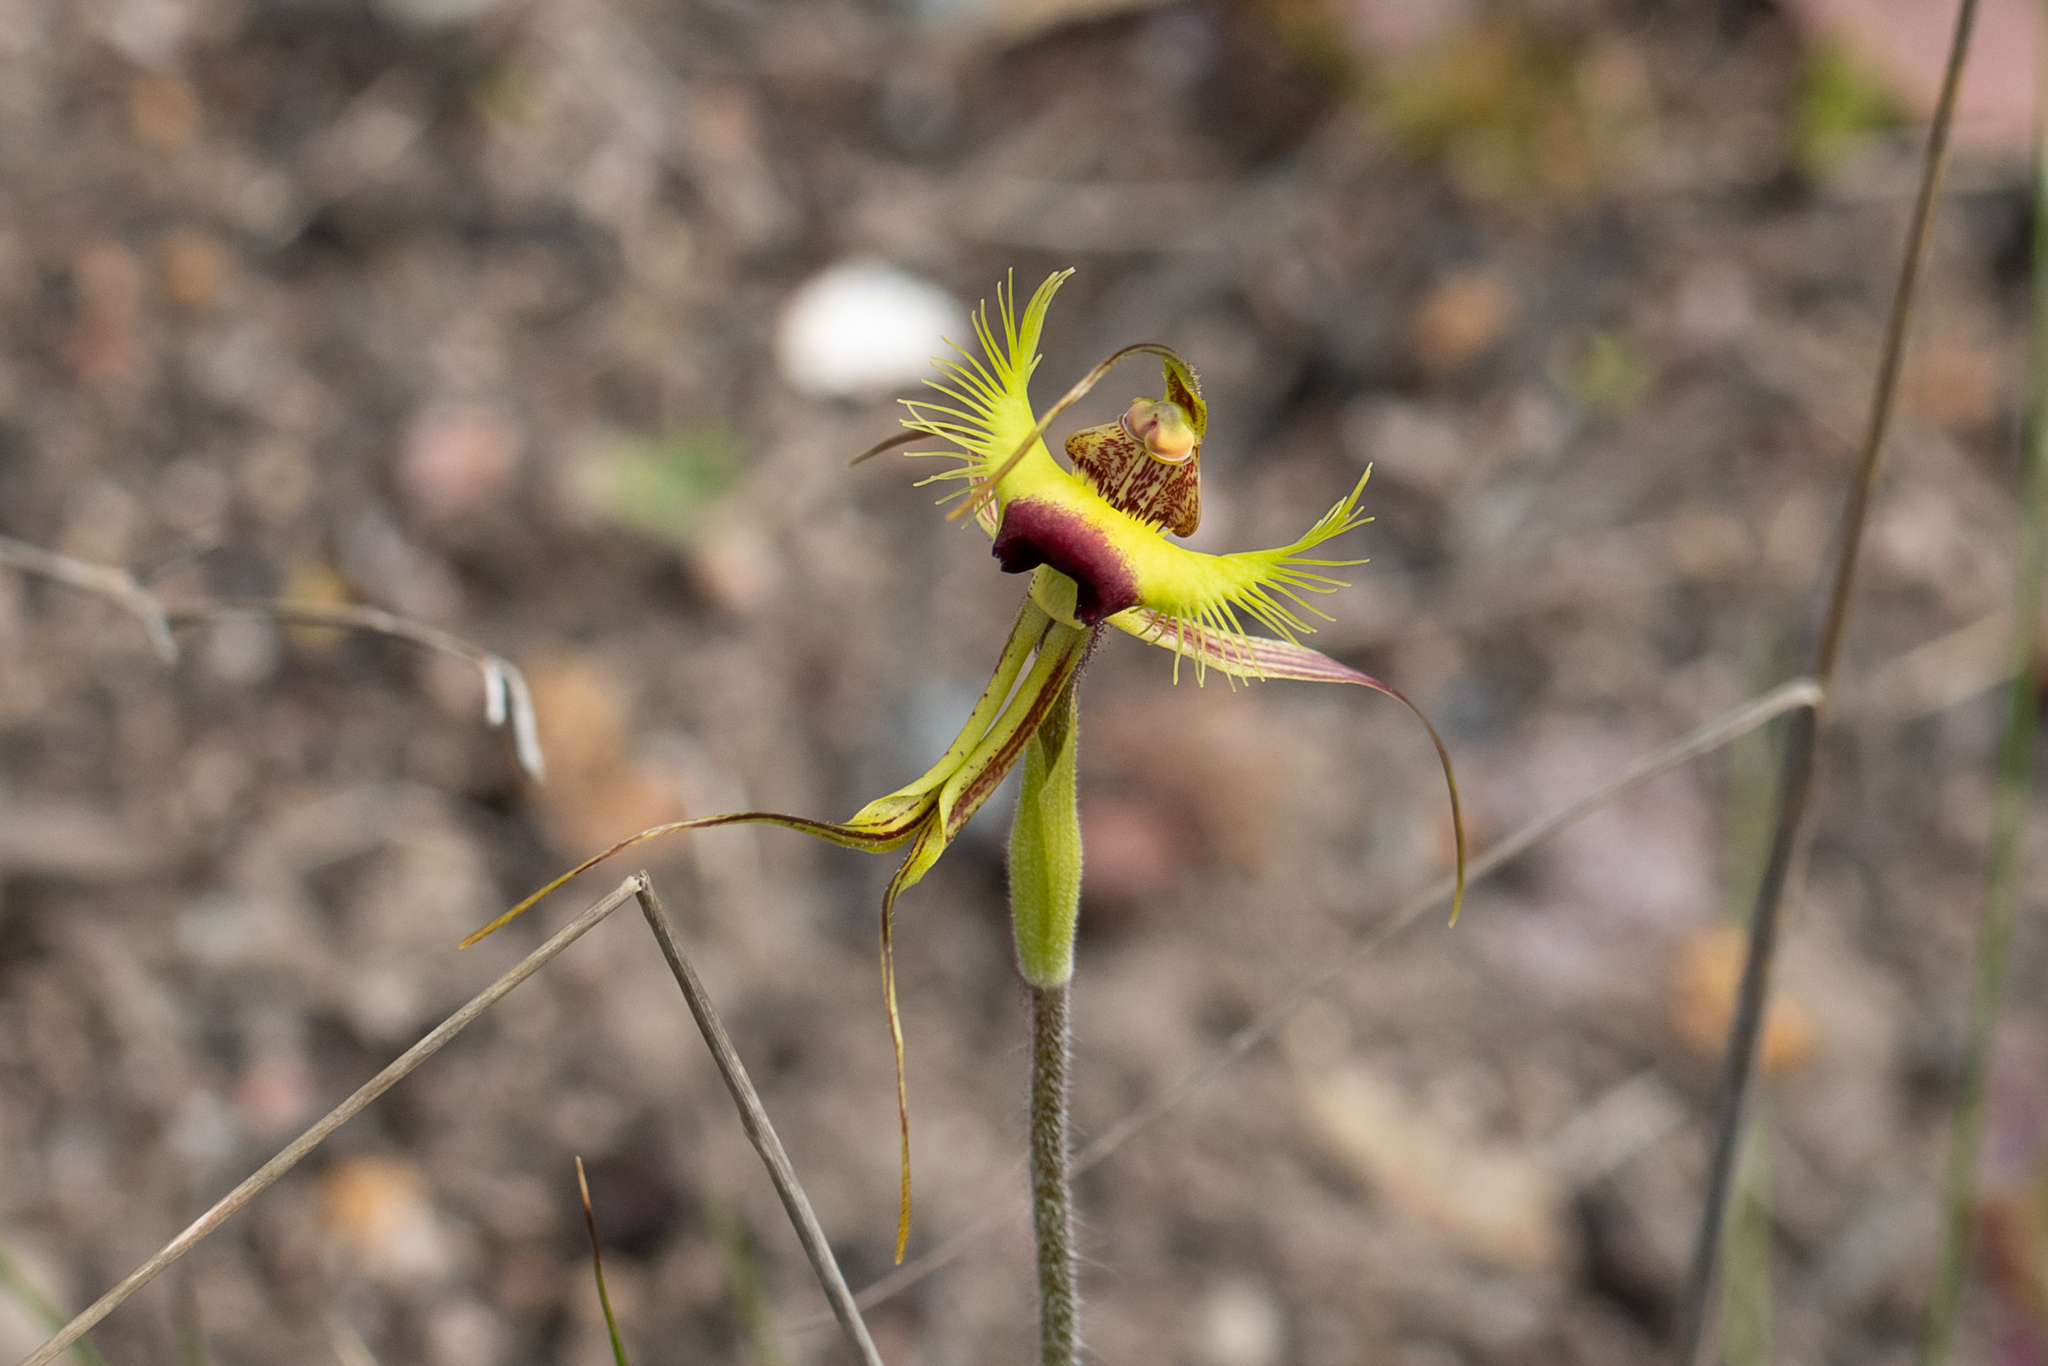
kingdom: Plantae
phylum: Tracheophyta
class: Liliopsida
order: Asparagales
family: Orchidaceae
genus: Caladenia
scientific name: Caladenia lobata
